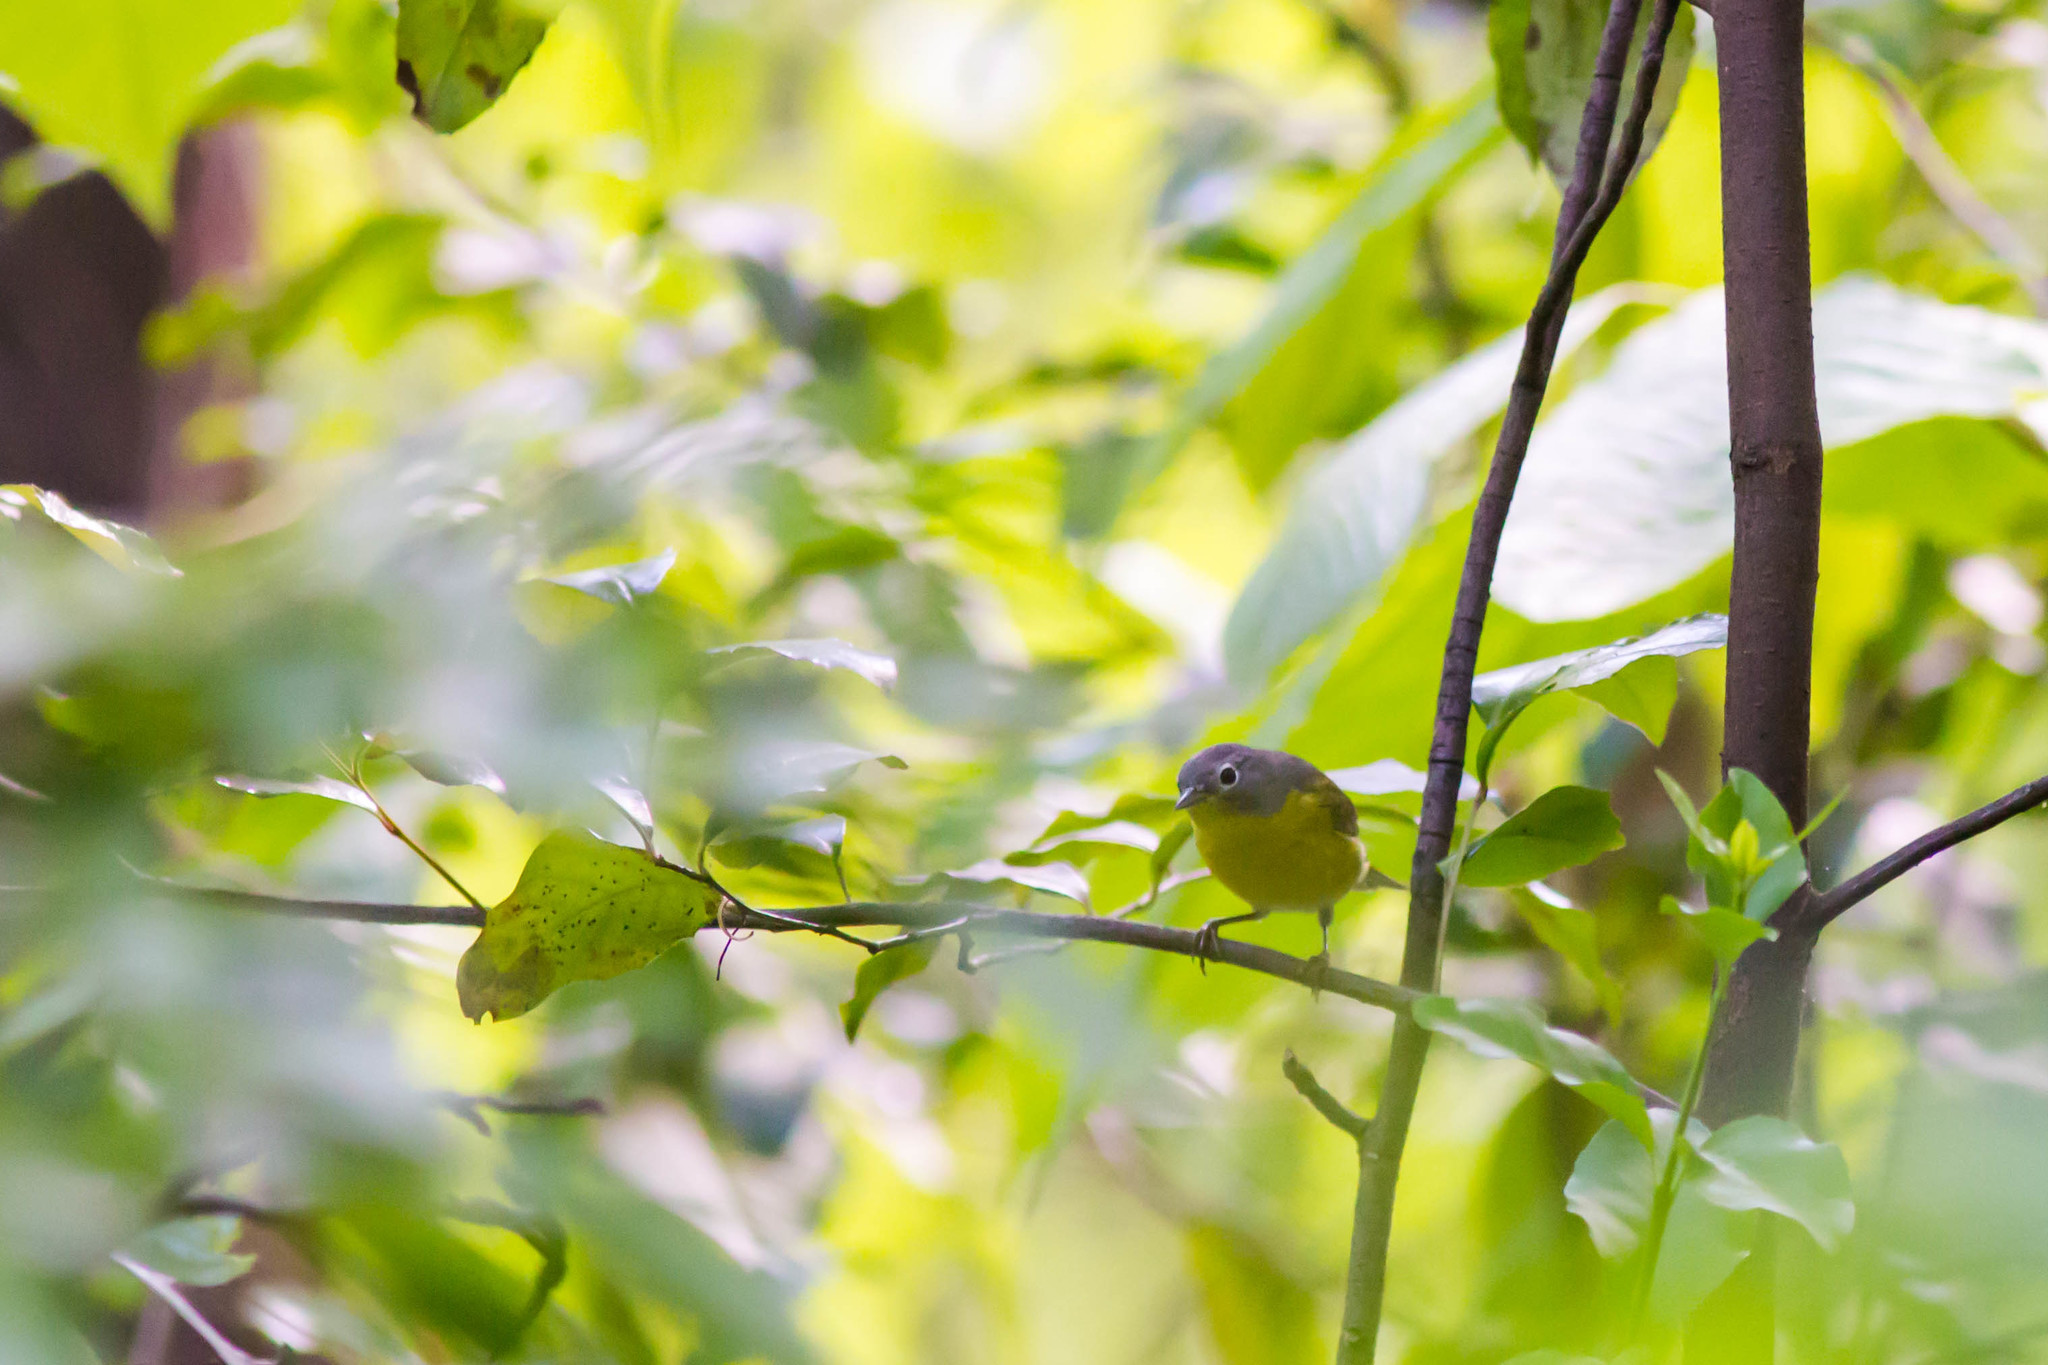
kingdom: Animalia
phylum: Chordata
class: Aves
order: Passeriformes
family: Parulidae
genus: Leiothlypis
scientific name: Leiothlypis ruficapilla
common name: Nashville warbler
